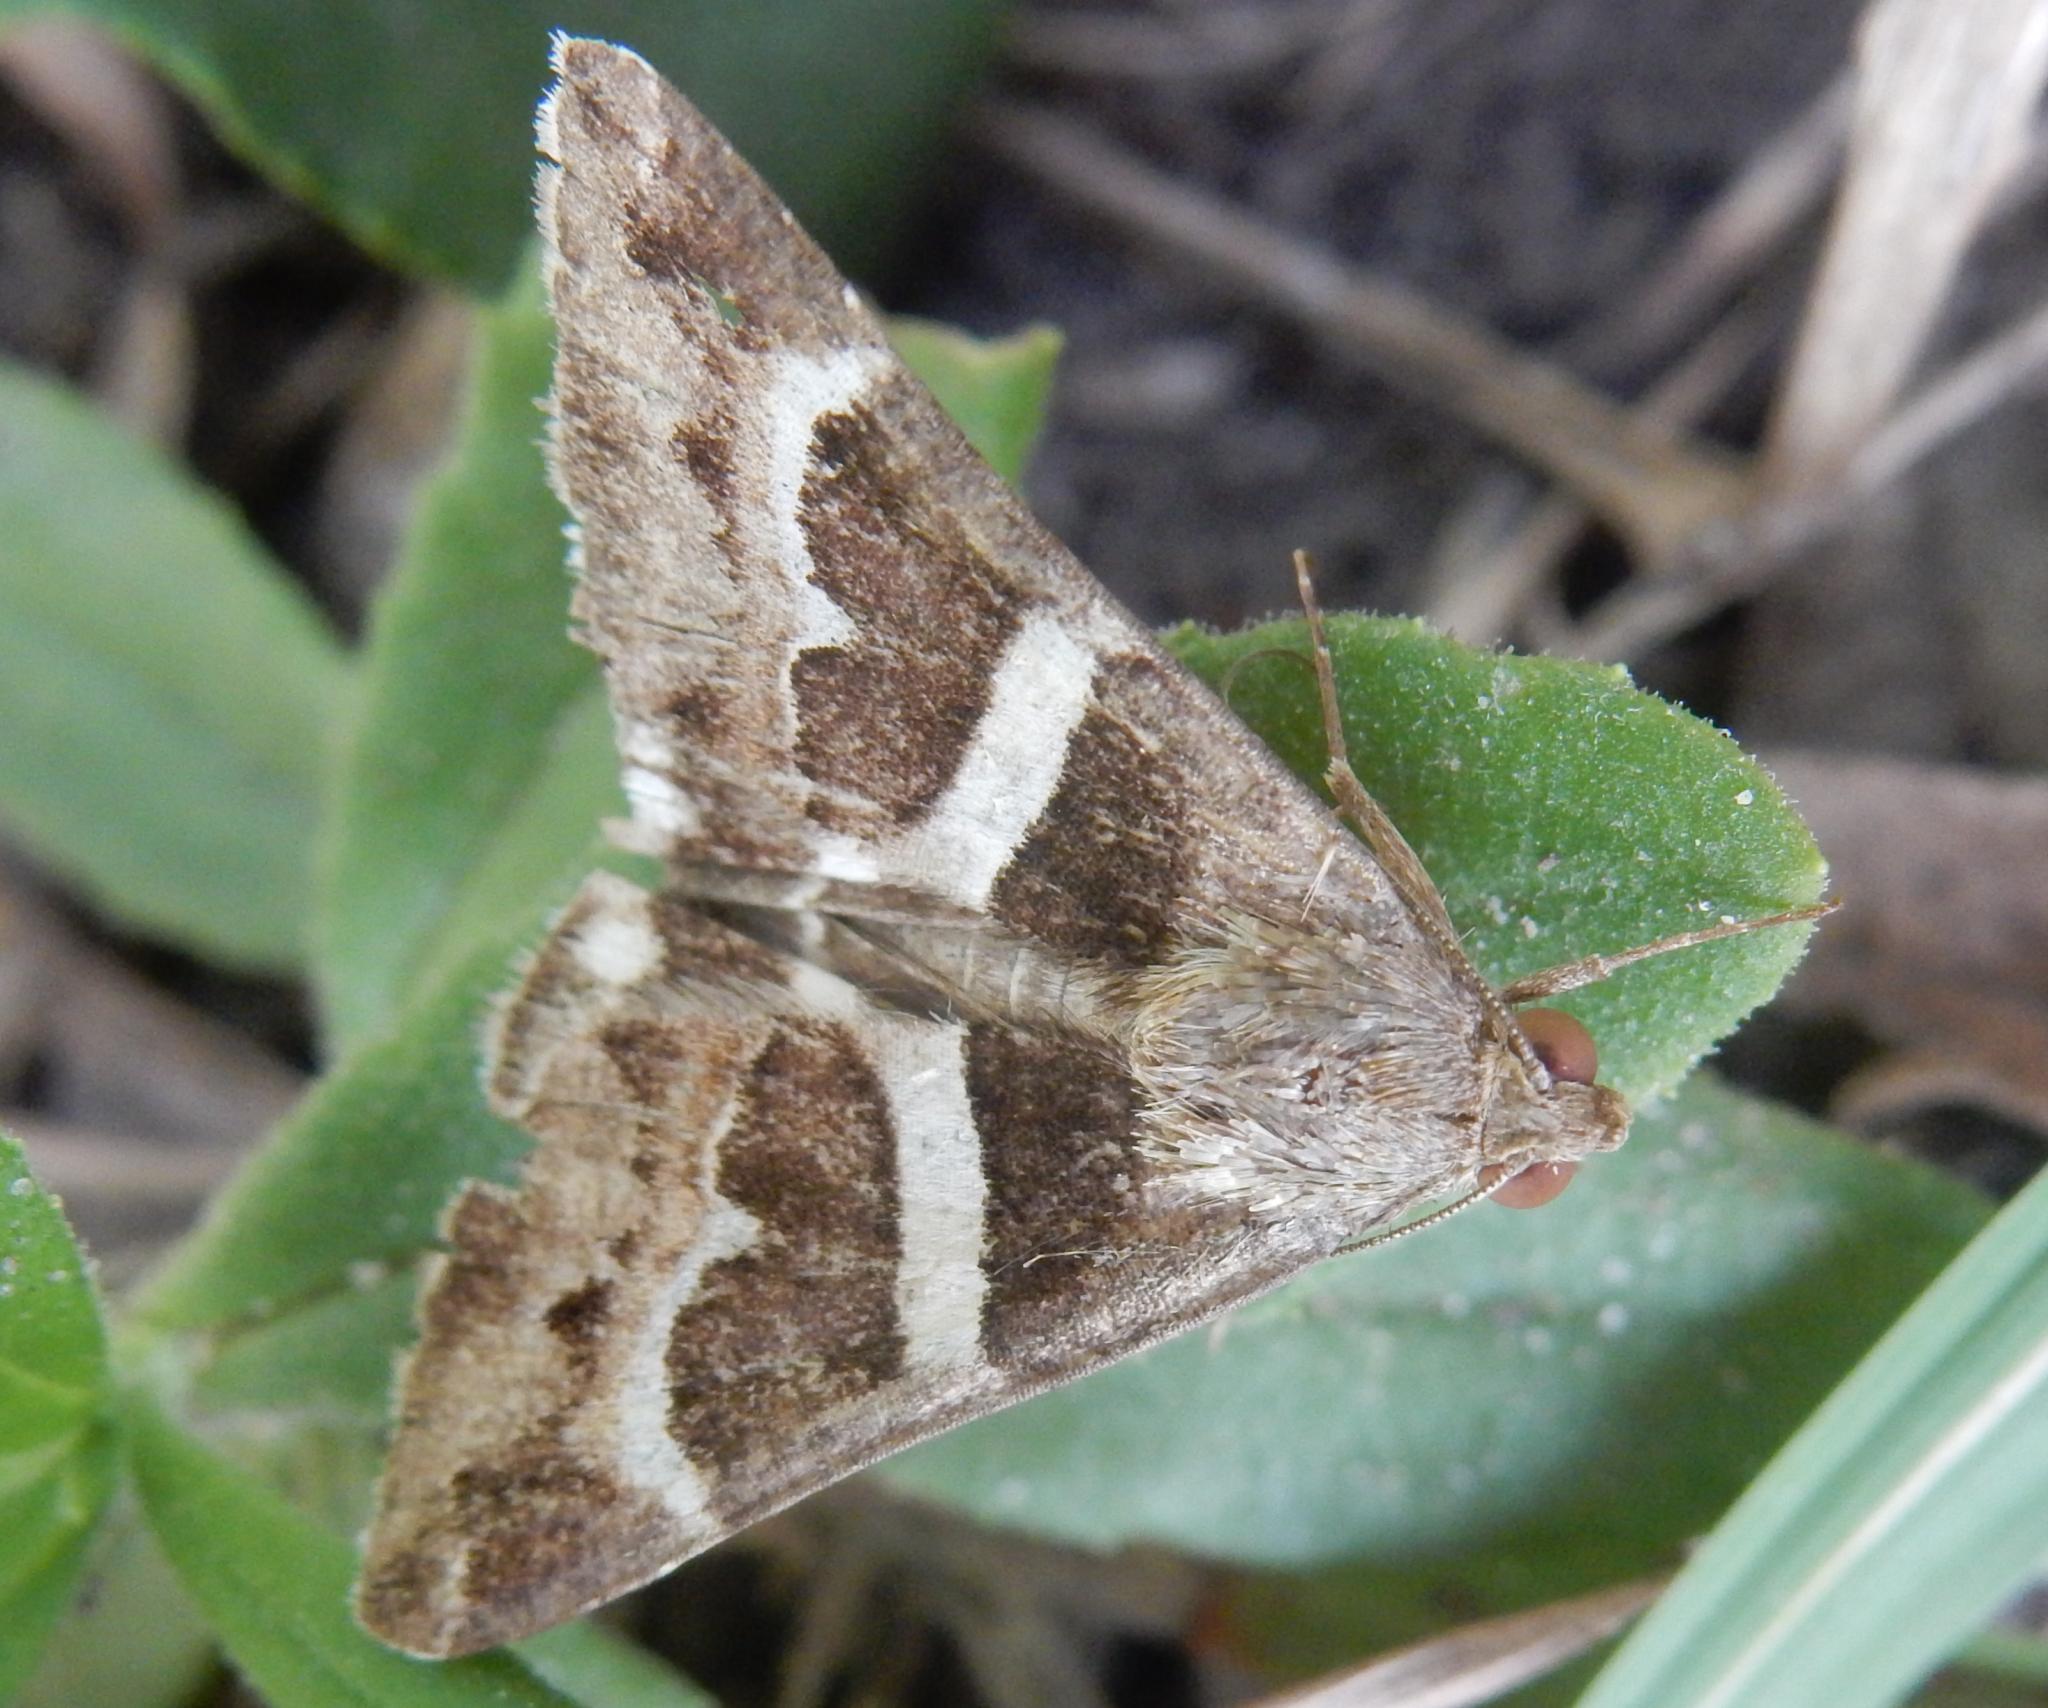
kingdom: Animalia
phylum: Arthropoda
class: Insecta
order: Lepidoptera
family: Erebidae
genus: Grammodes
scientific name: Grammodes stolida
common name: Geometrician
